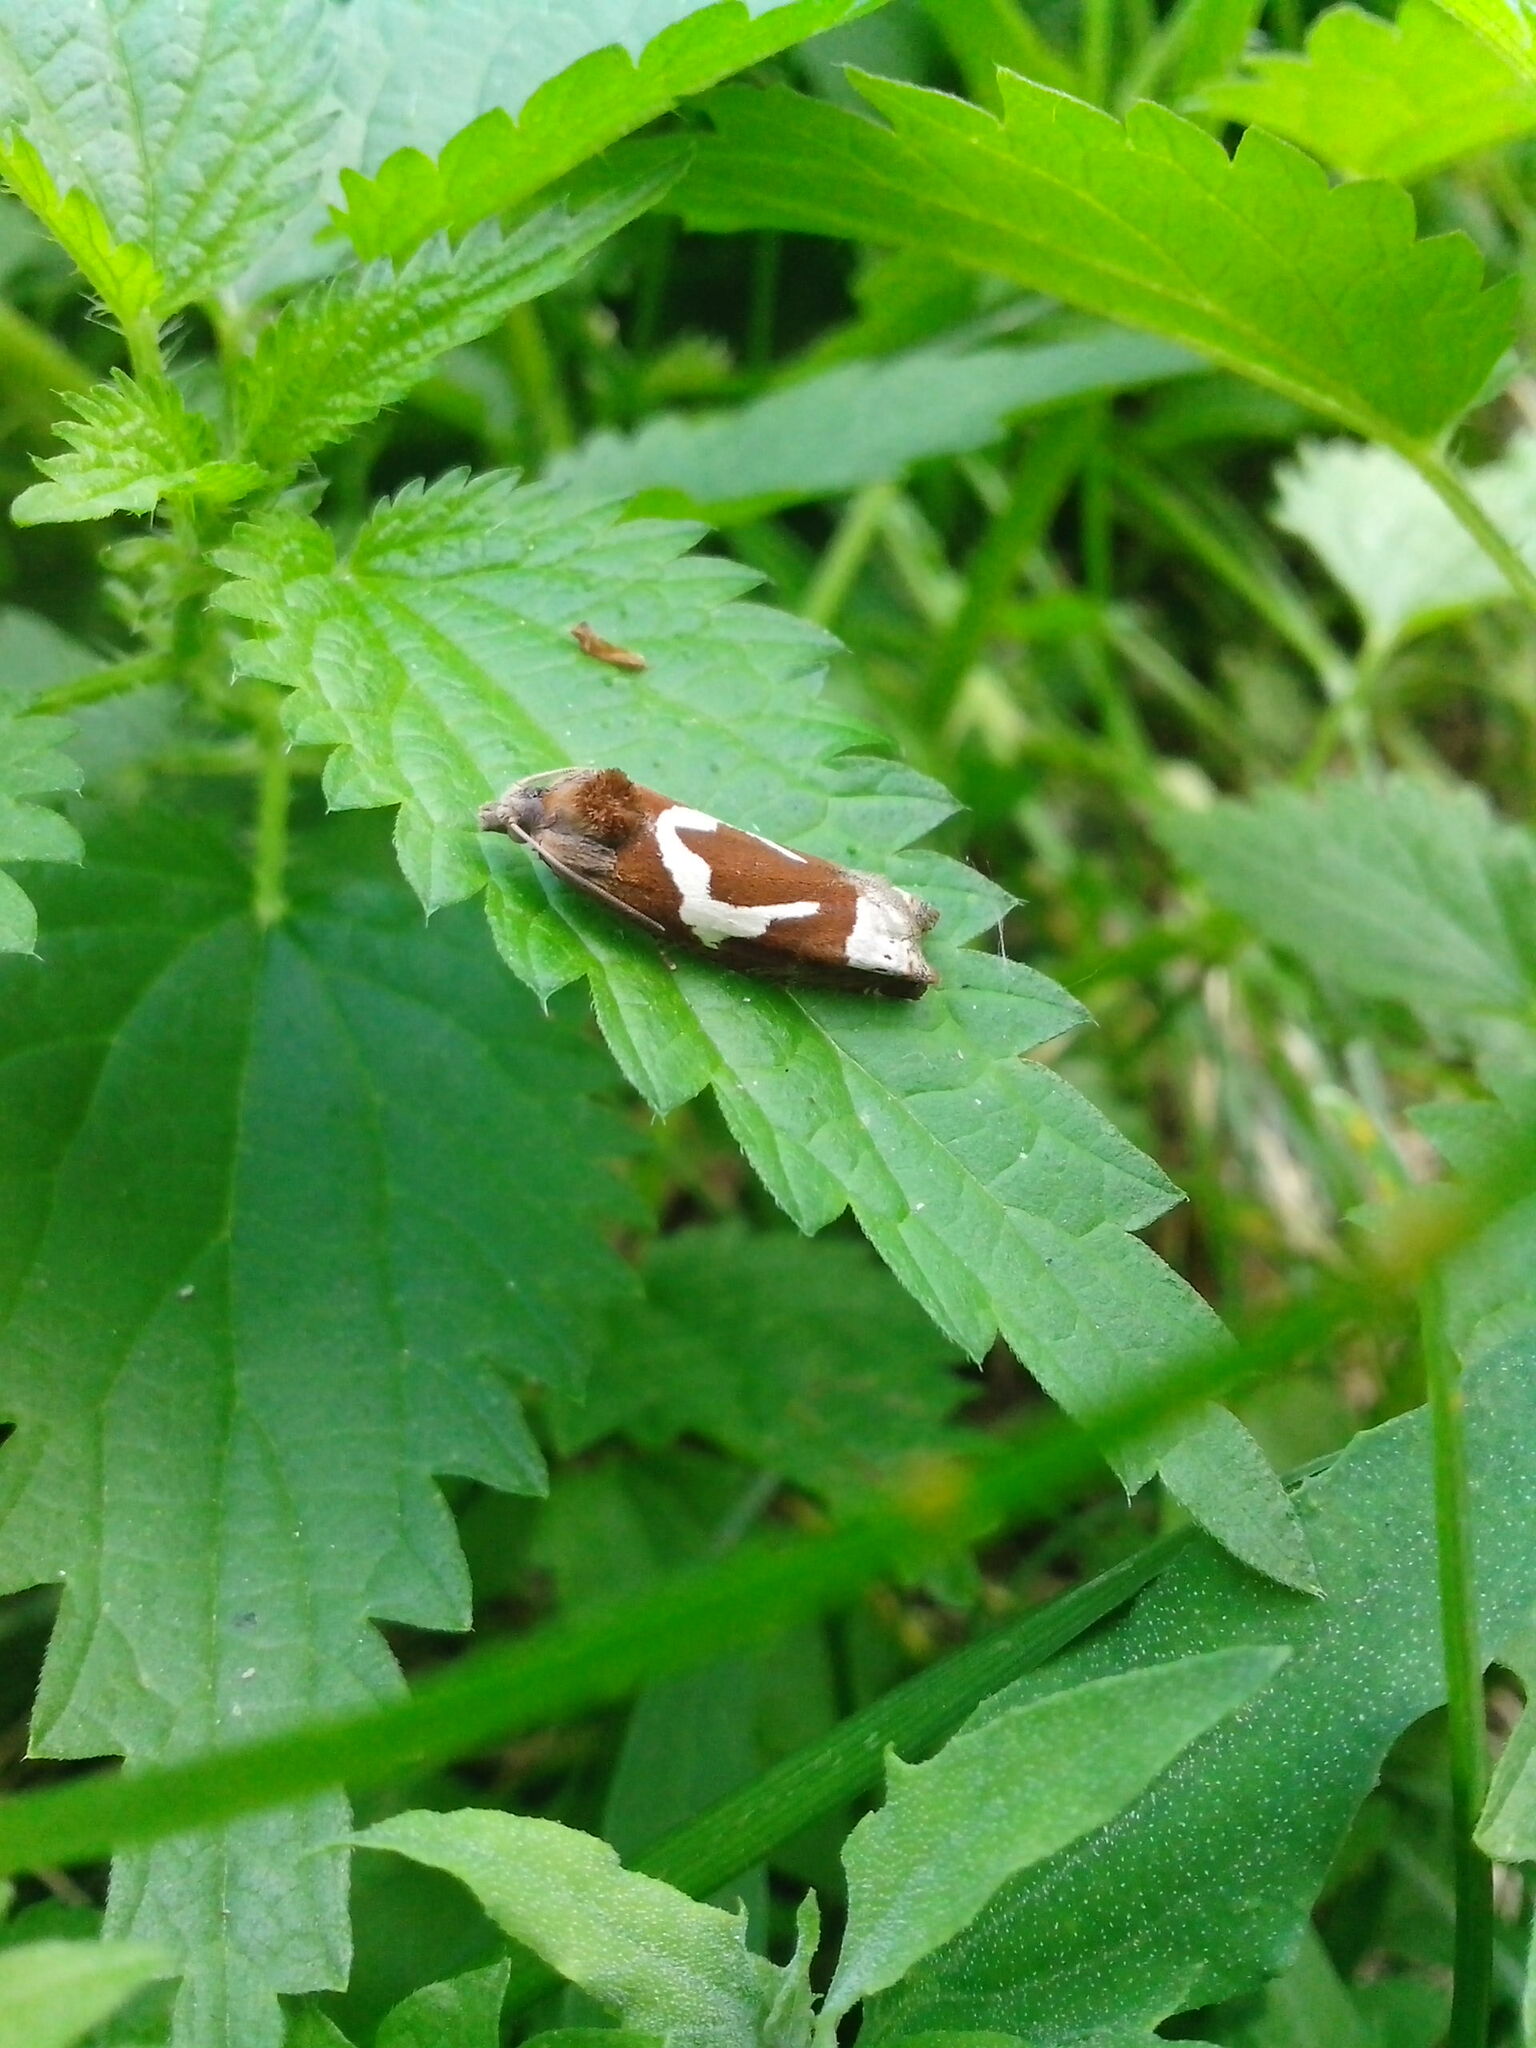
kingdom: Animalia
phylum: Arthropoda
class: Insecta
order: Lepidoptera
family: Tortricidae
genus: Epiblema
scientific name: Epiblema foenella
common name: White-foot bell
